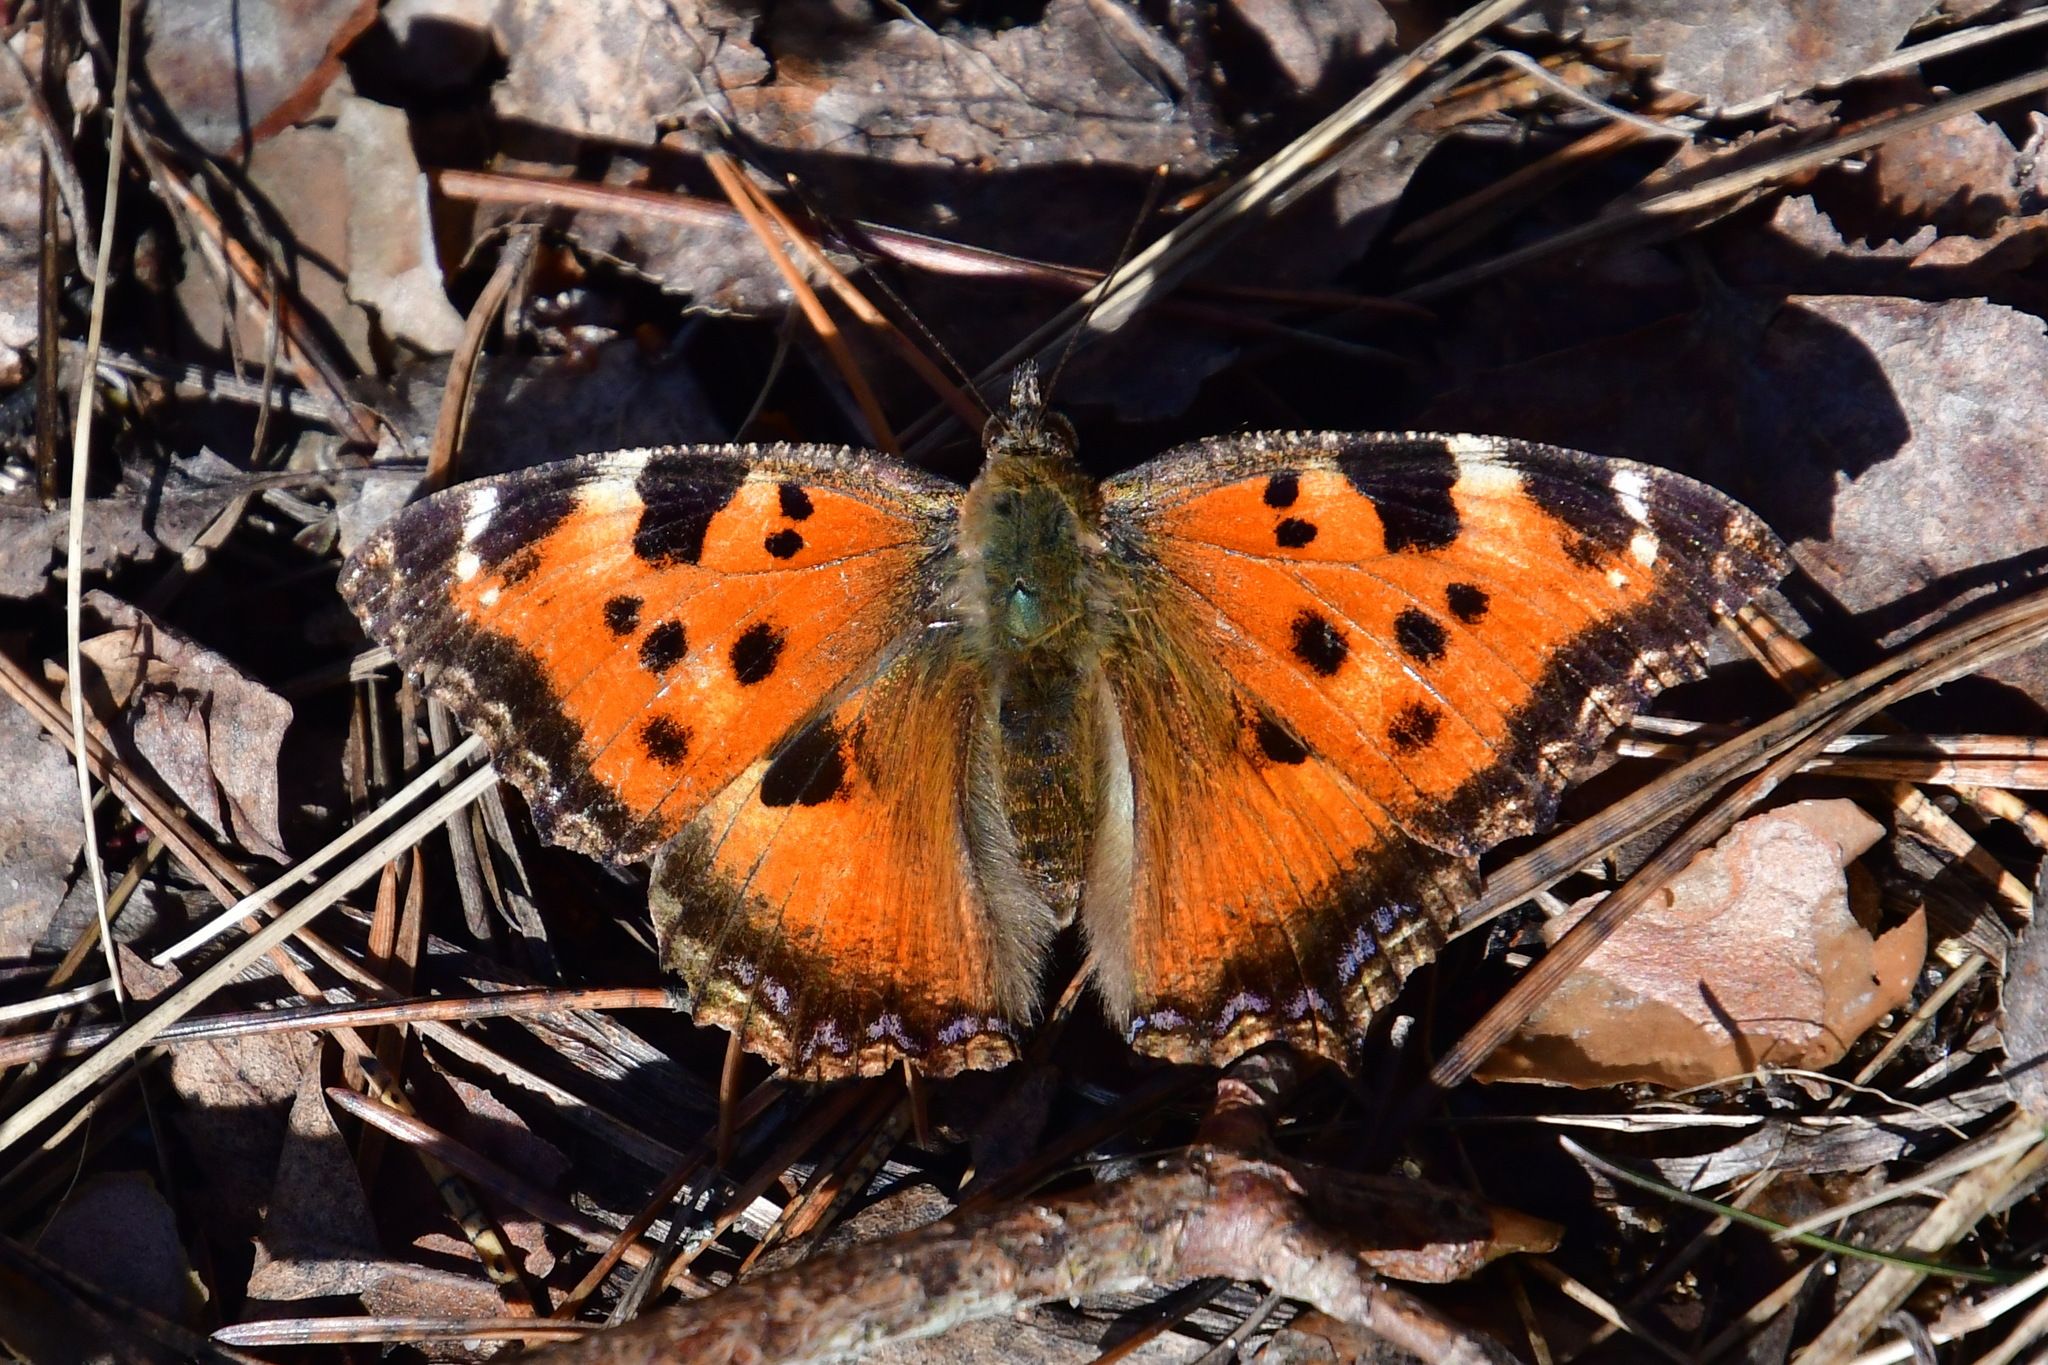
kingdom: Animalia
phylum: Arthropoda
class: Insecta
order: Lepidoptera
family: Nymphalidae
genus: Nymphalis
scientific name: Nymphalis xanthomelas
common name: Scarce tortoiseshell
